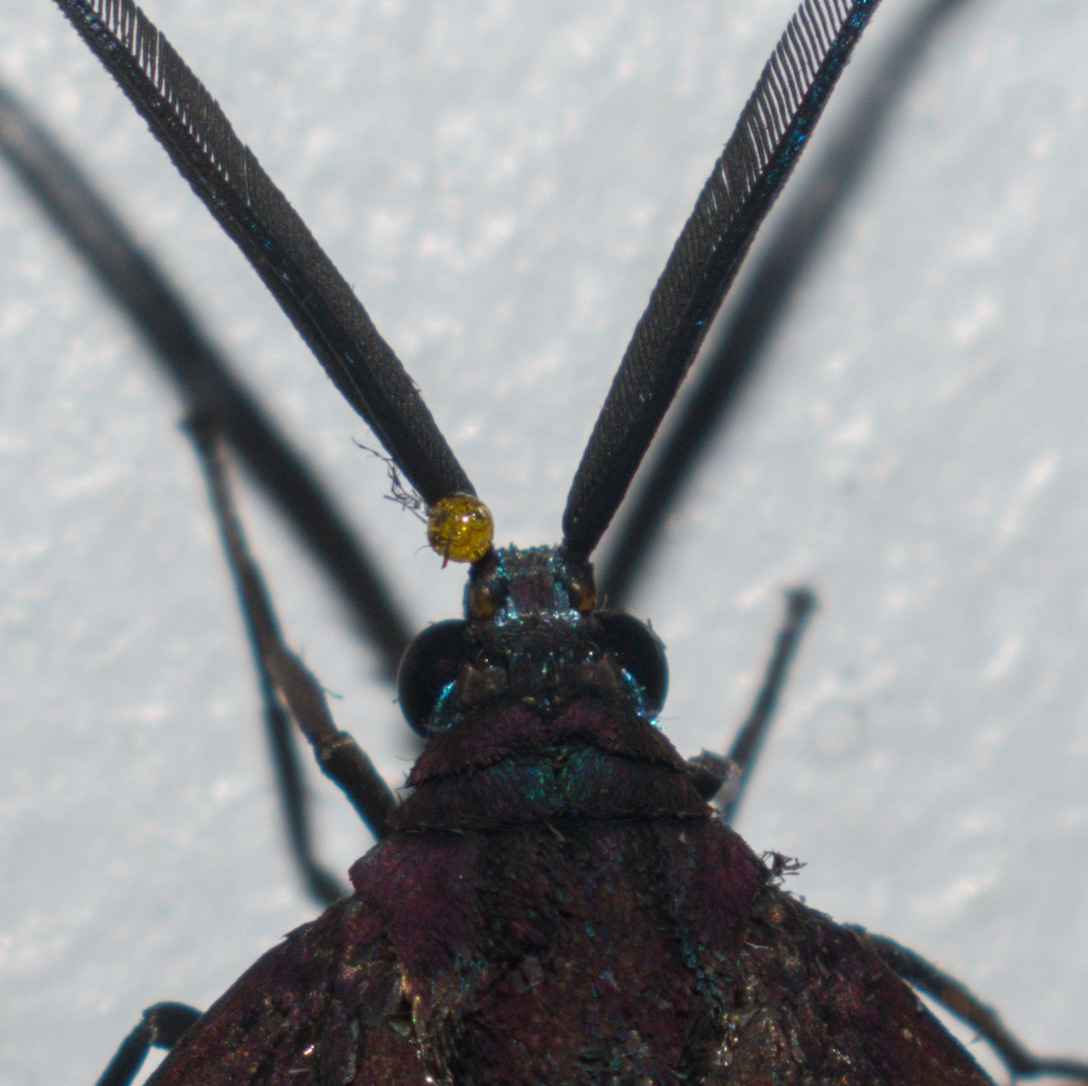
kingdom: Animalia
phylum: Arthropoda
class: Insecta
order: Lepidoptera
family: Zygaenidae
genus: Cyclosia
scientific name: Cyclosia
